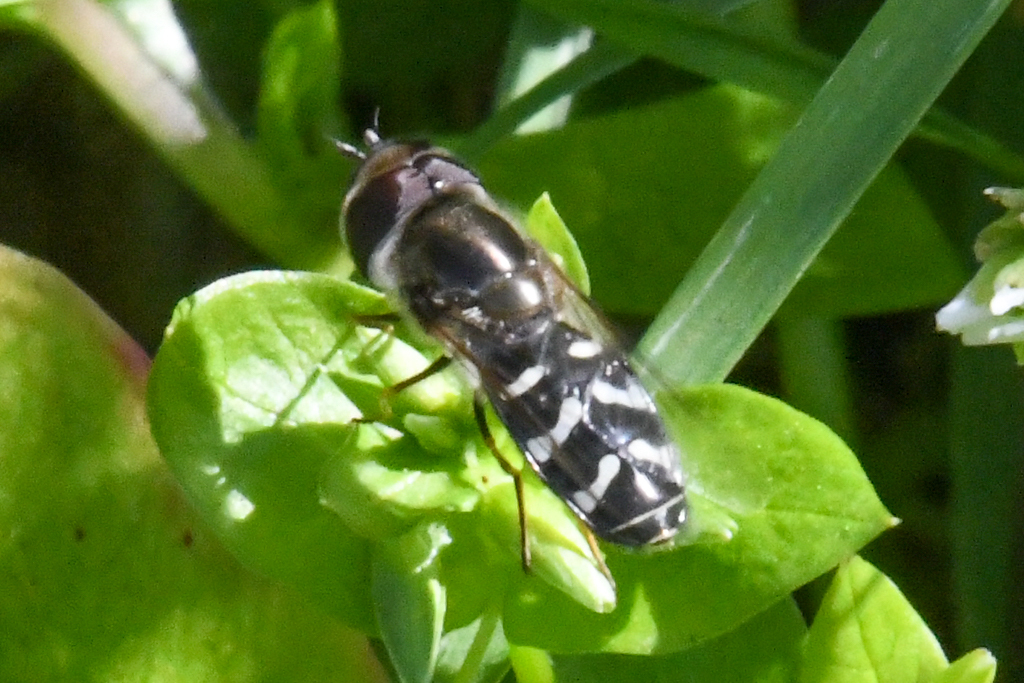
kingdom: Animalia
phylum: Arthropoda
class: Insecta
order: Diptera
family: Syrphidae
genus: Scaeva
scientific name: Scaeva affinis
